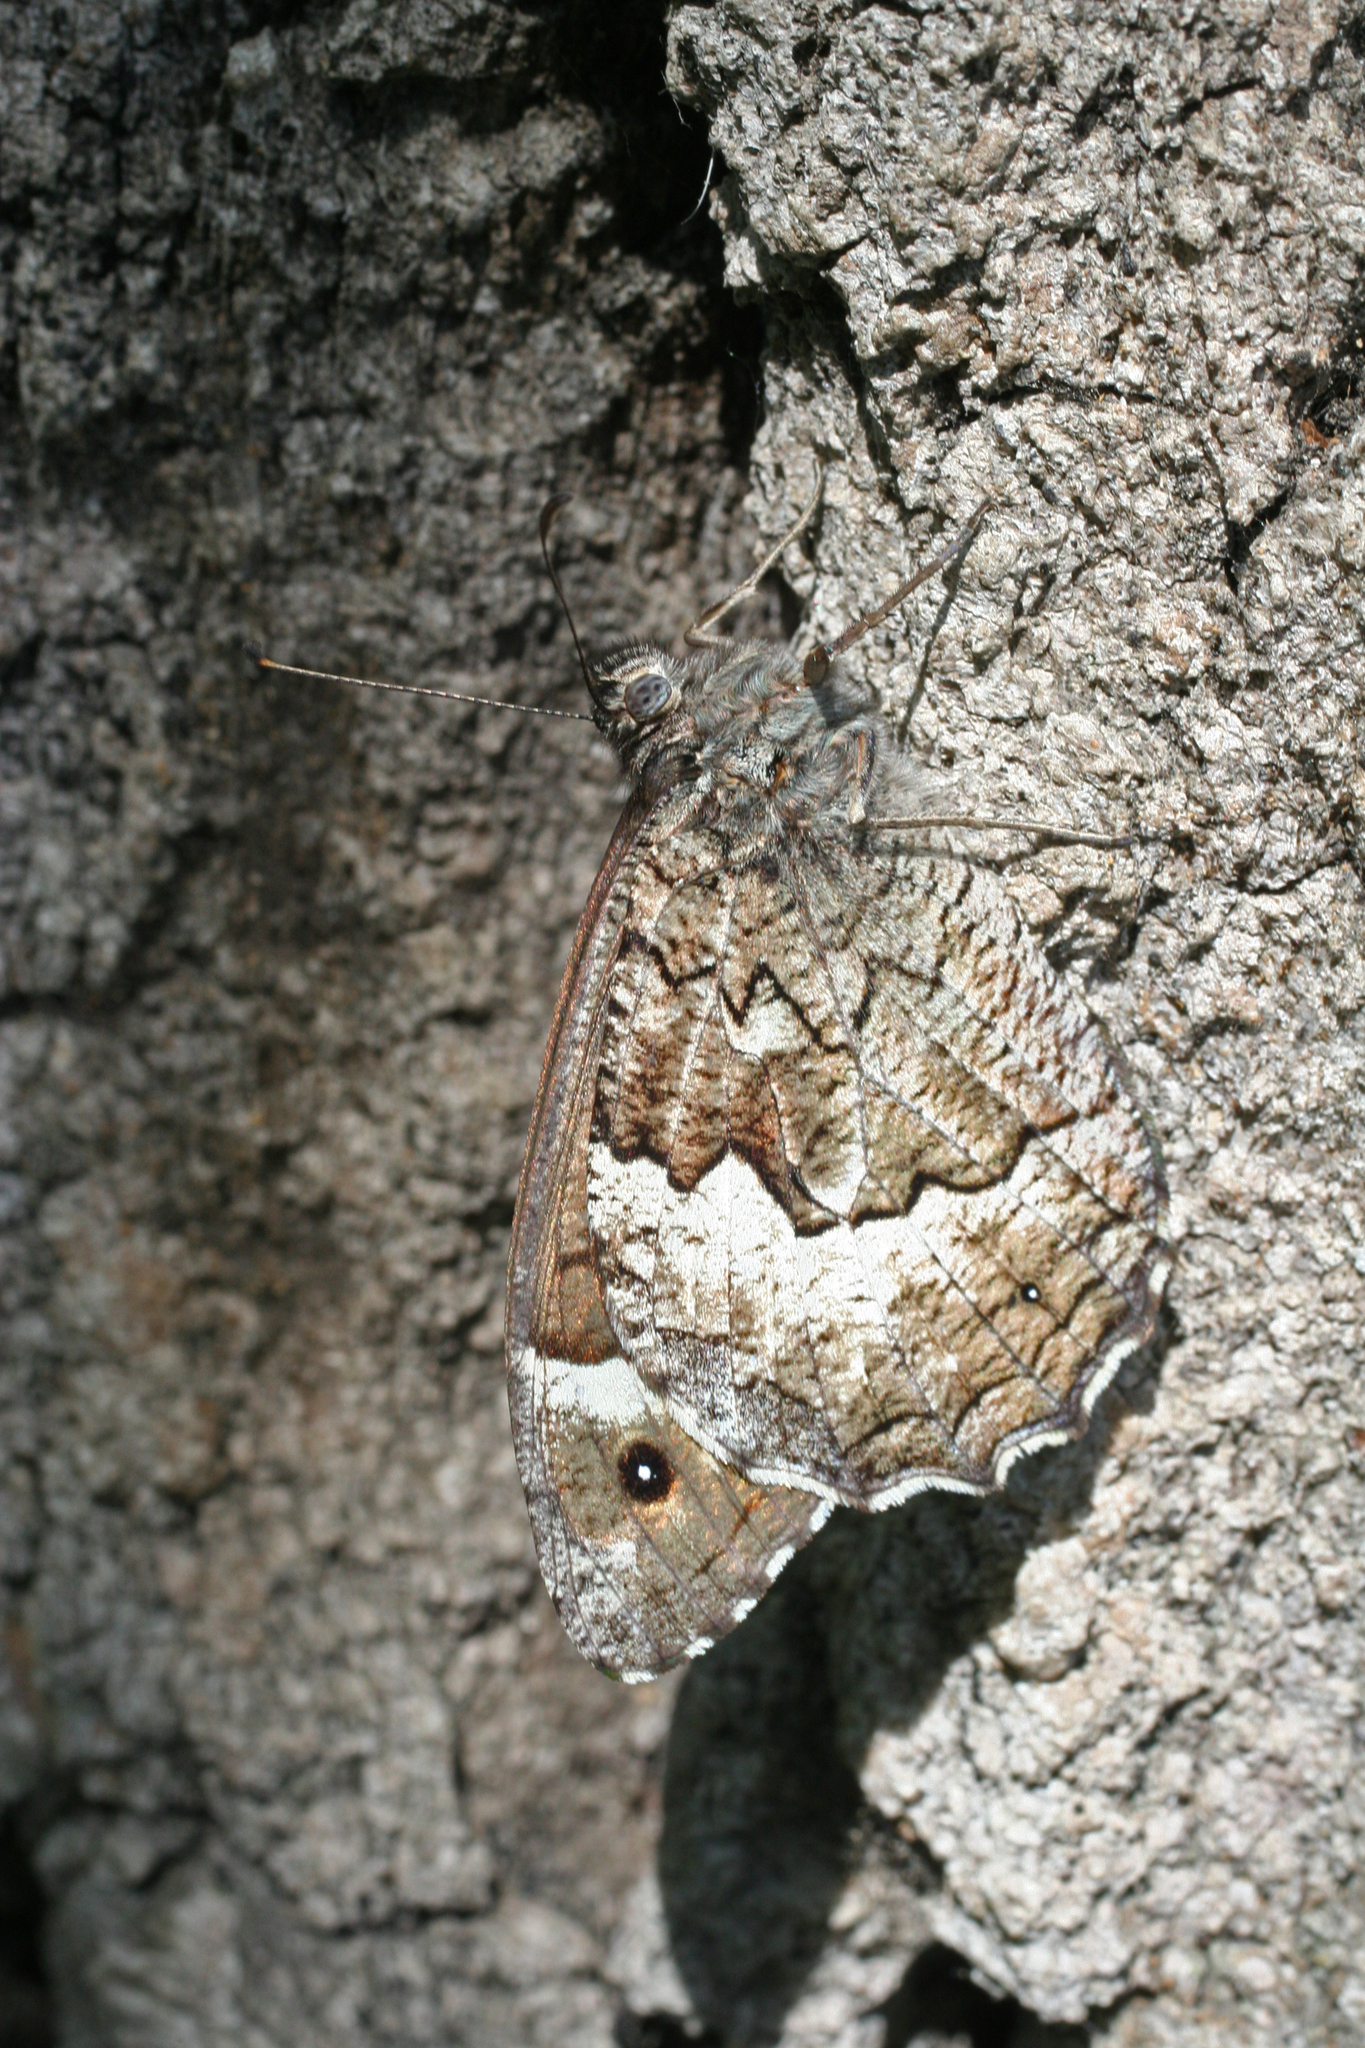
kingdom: Animalia
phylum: Arthropoda
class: Insecta
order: Lepidoptera
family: Nymphalidae
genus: Hipparchia
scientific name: Hipparchia syriaca
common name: Eastern rock grayling
